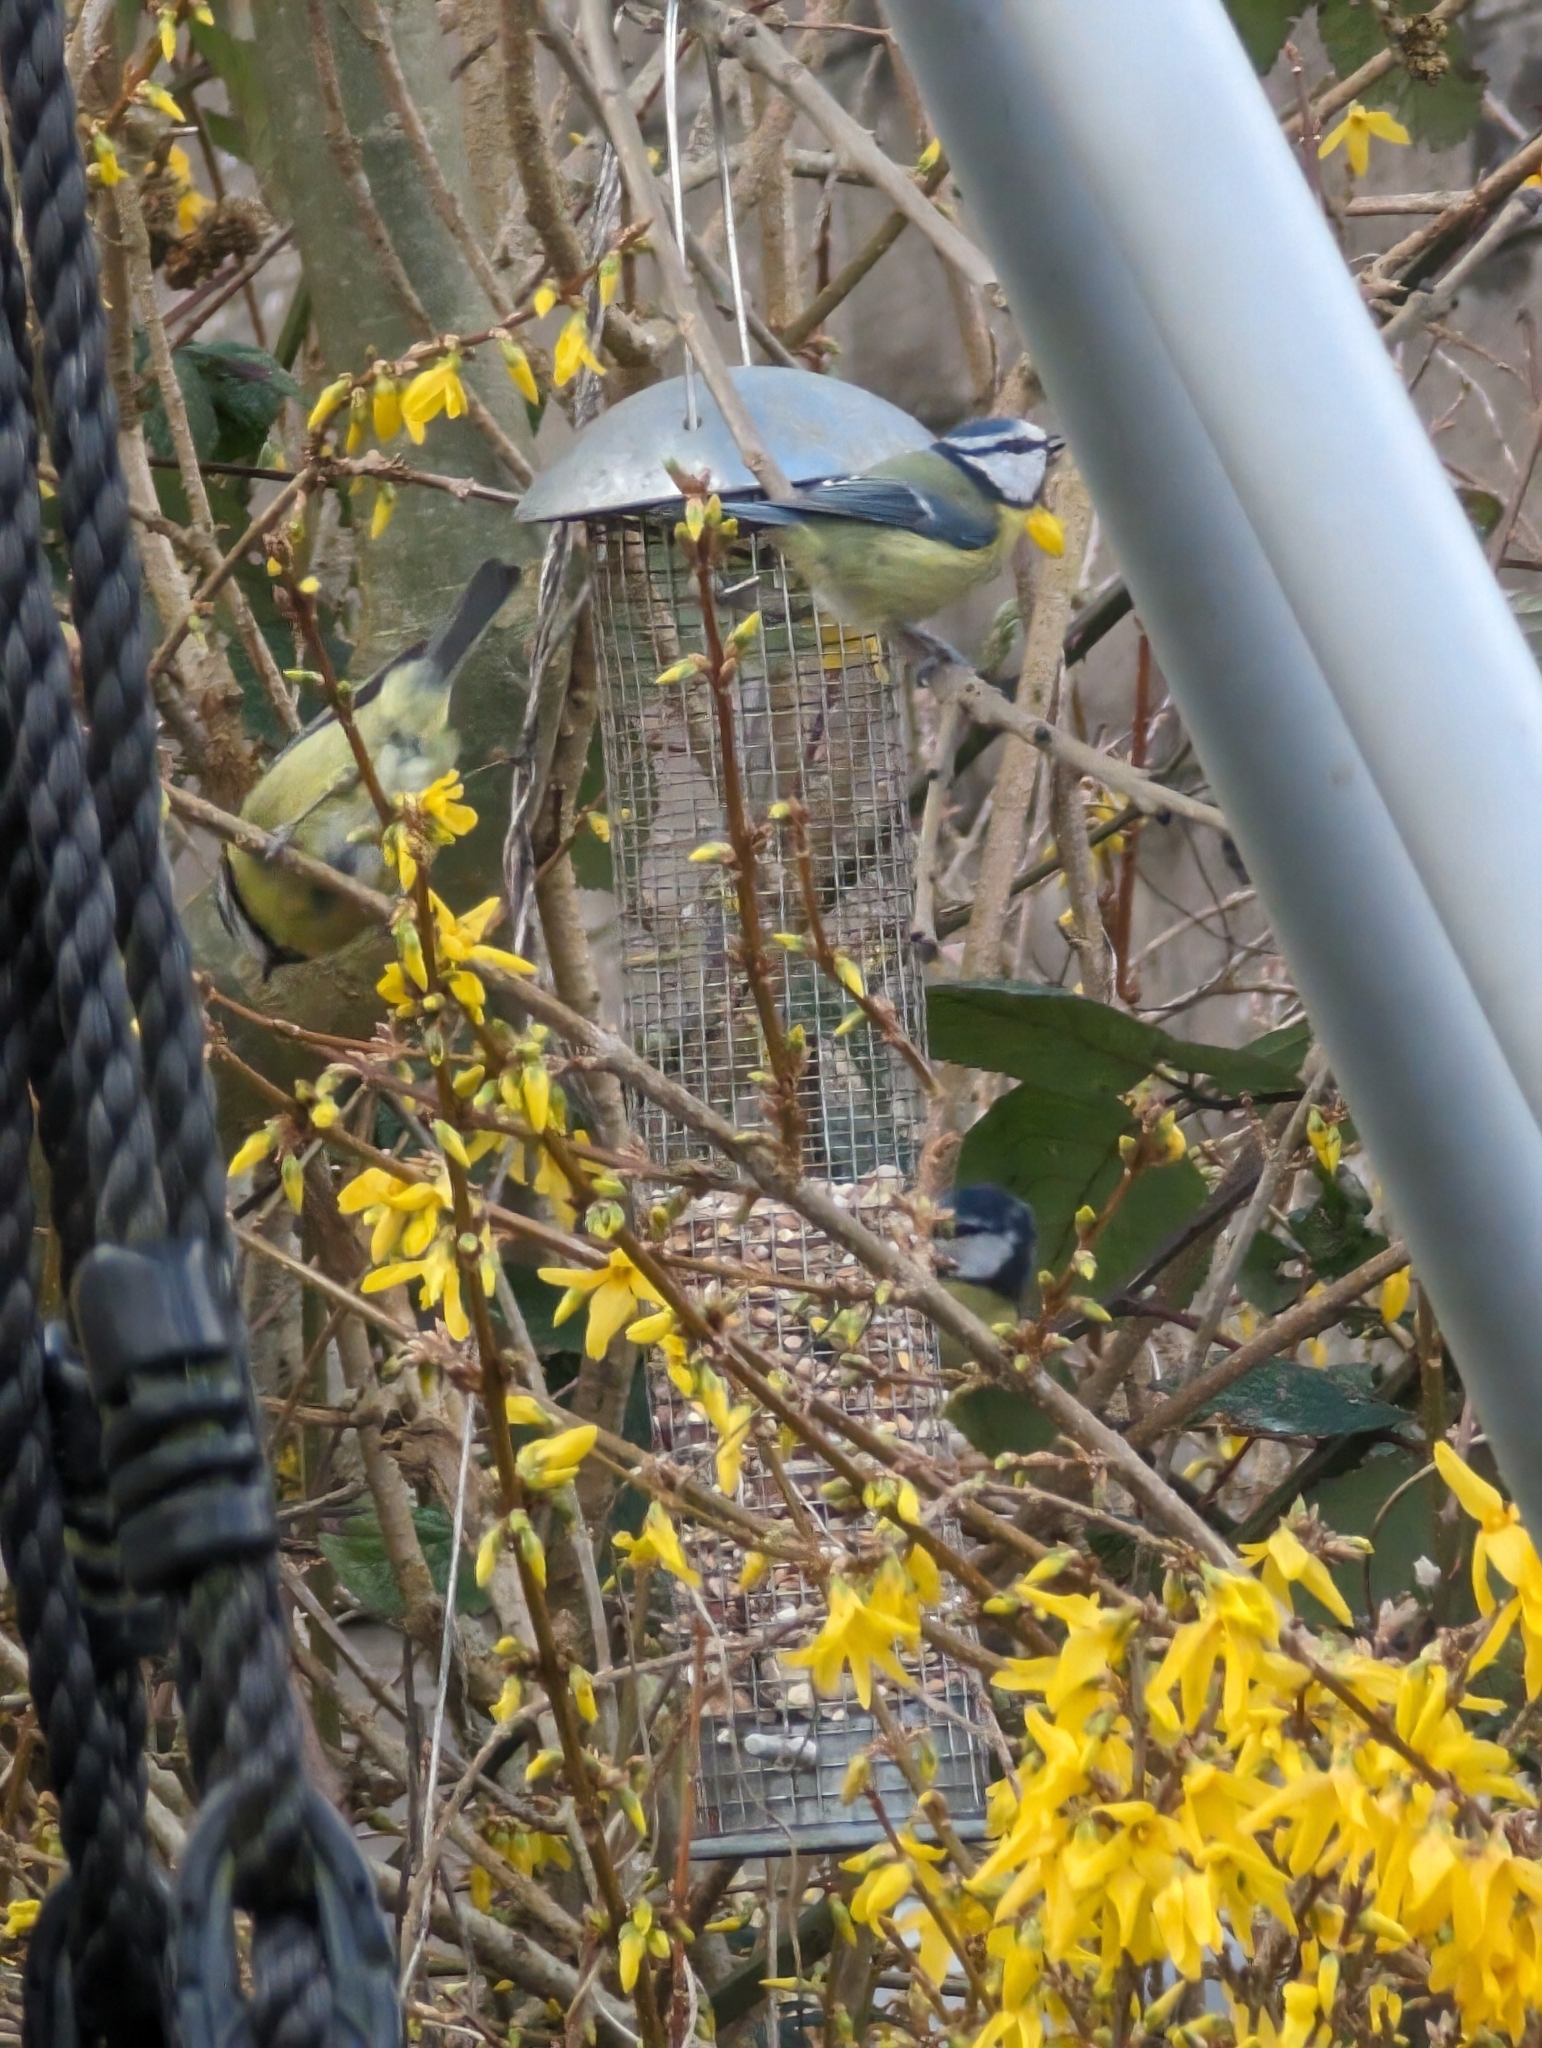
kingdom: Animalia
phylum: Chordata
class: Aves
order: Passeriformes
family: Paridae
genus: Cyanistes
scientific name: Cyanistes caeruleus
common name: Eurasian blue tit
